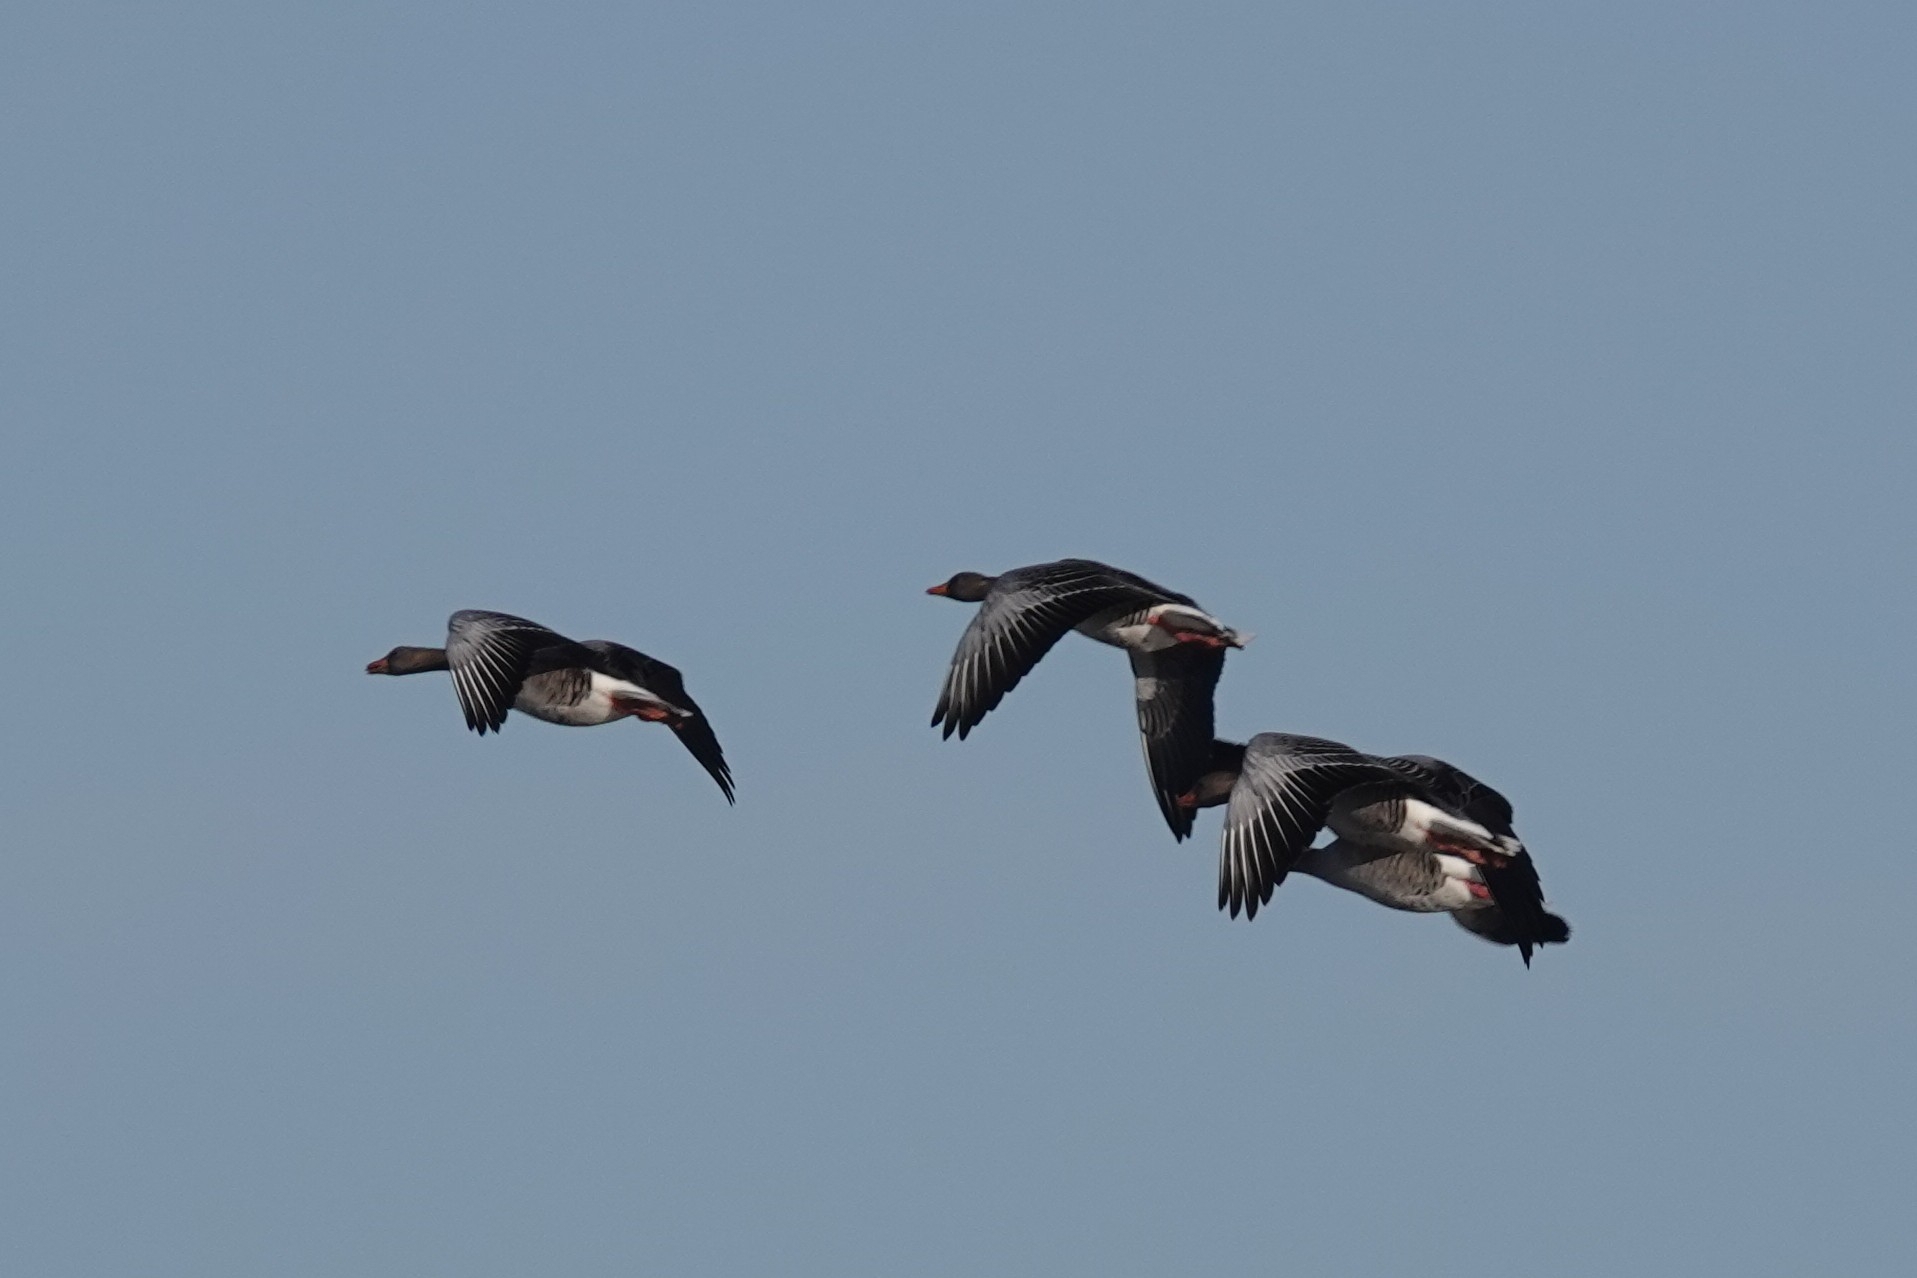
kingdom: Animalia
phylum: Chordata
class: Aves
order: Anseriformes
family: Anatidae
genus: Anser
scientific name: Anser anser
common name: Greylag goose
